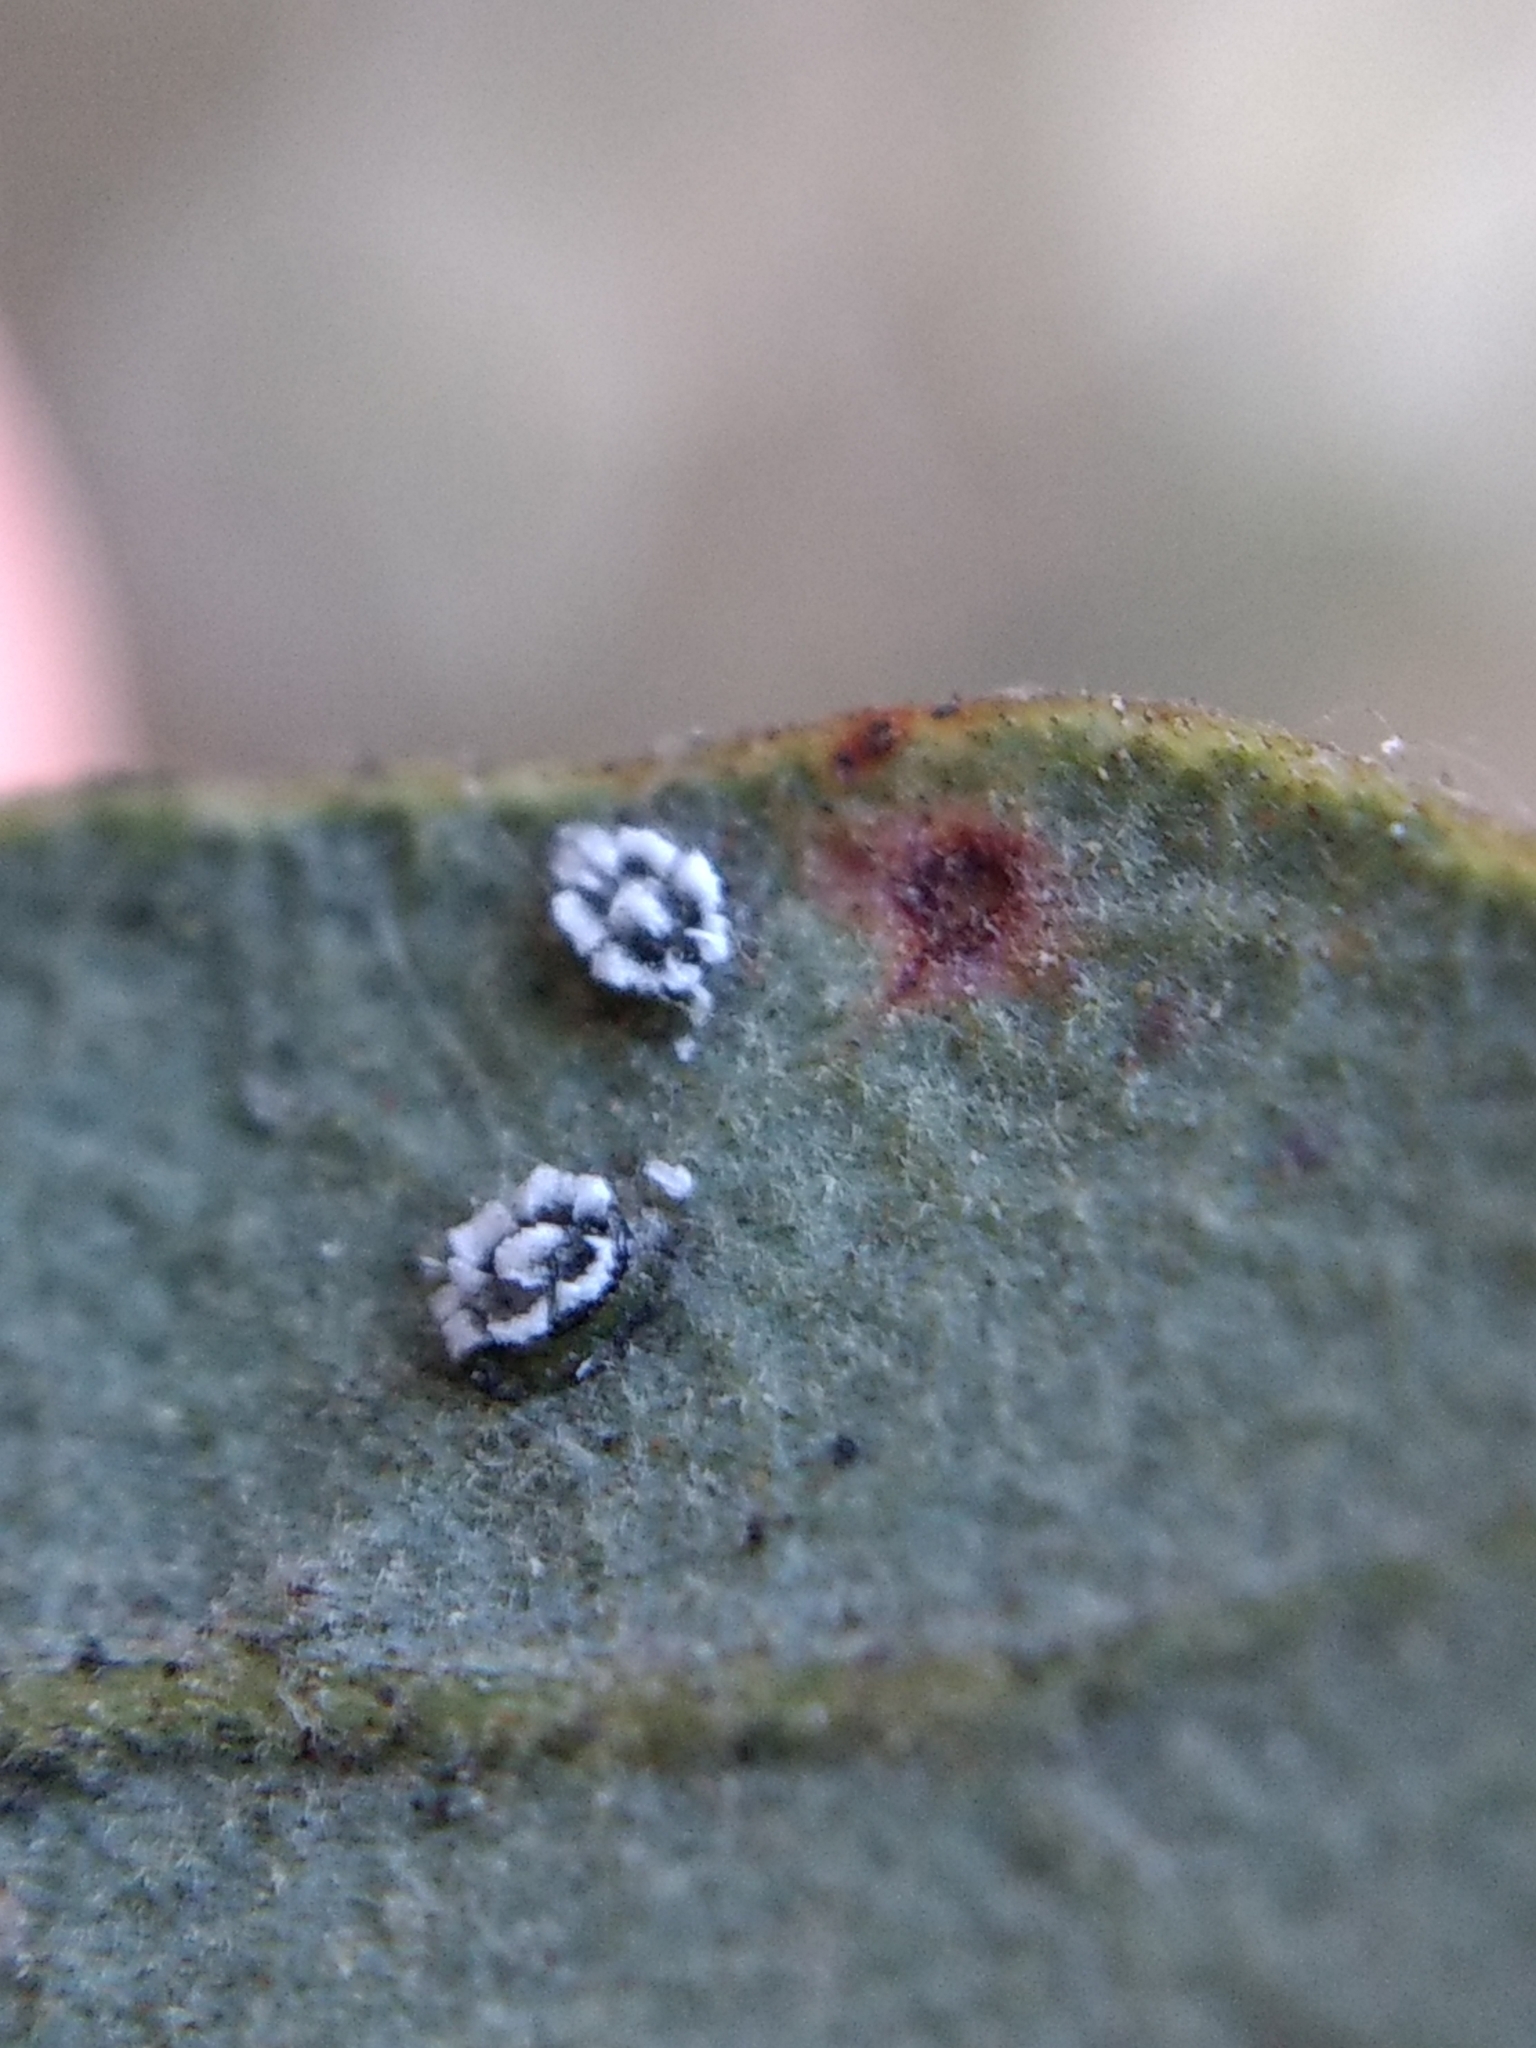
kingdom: Animalia
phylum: Arthropoda
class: Insecta
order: Hemiptera
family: Aleyrodidae
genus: Aleuroplatus
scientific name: Aleuroplatus coronata
